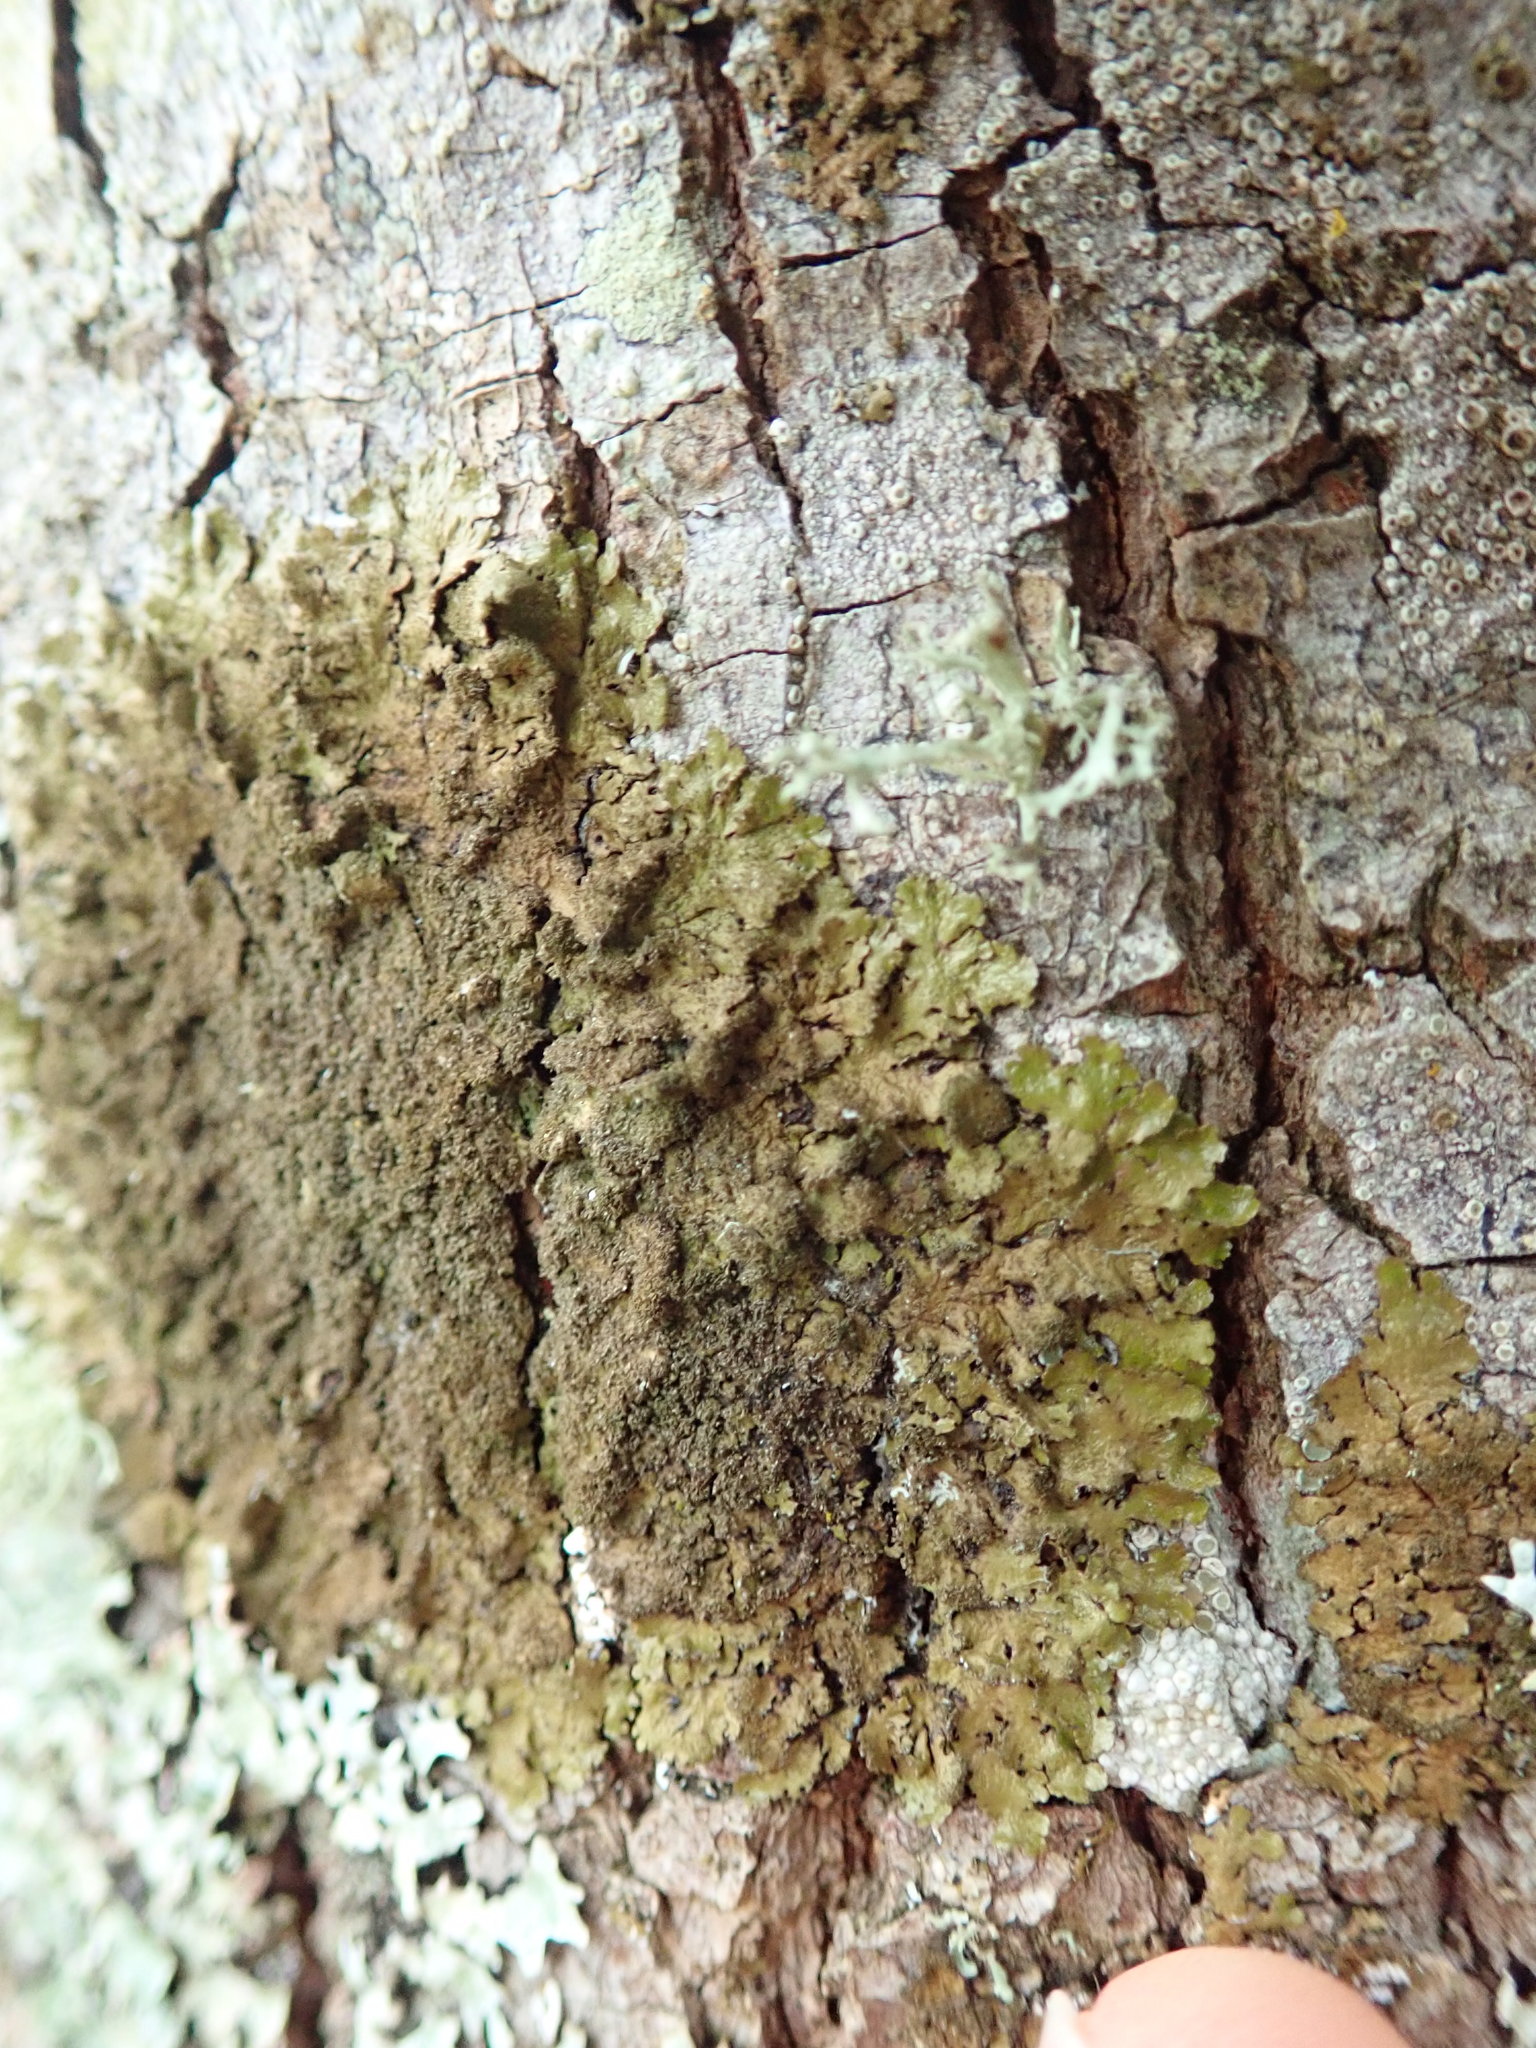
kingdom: Fungi
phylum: Ascomycota
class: Lecanoromycetes
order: Lecanorales
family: Parmeliaceae
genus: Melanohalea
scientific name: Melanohalea exasperatula
